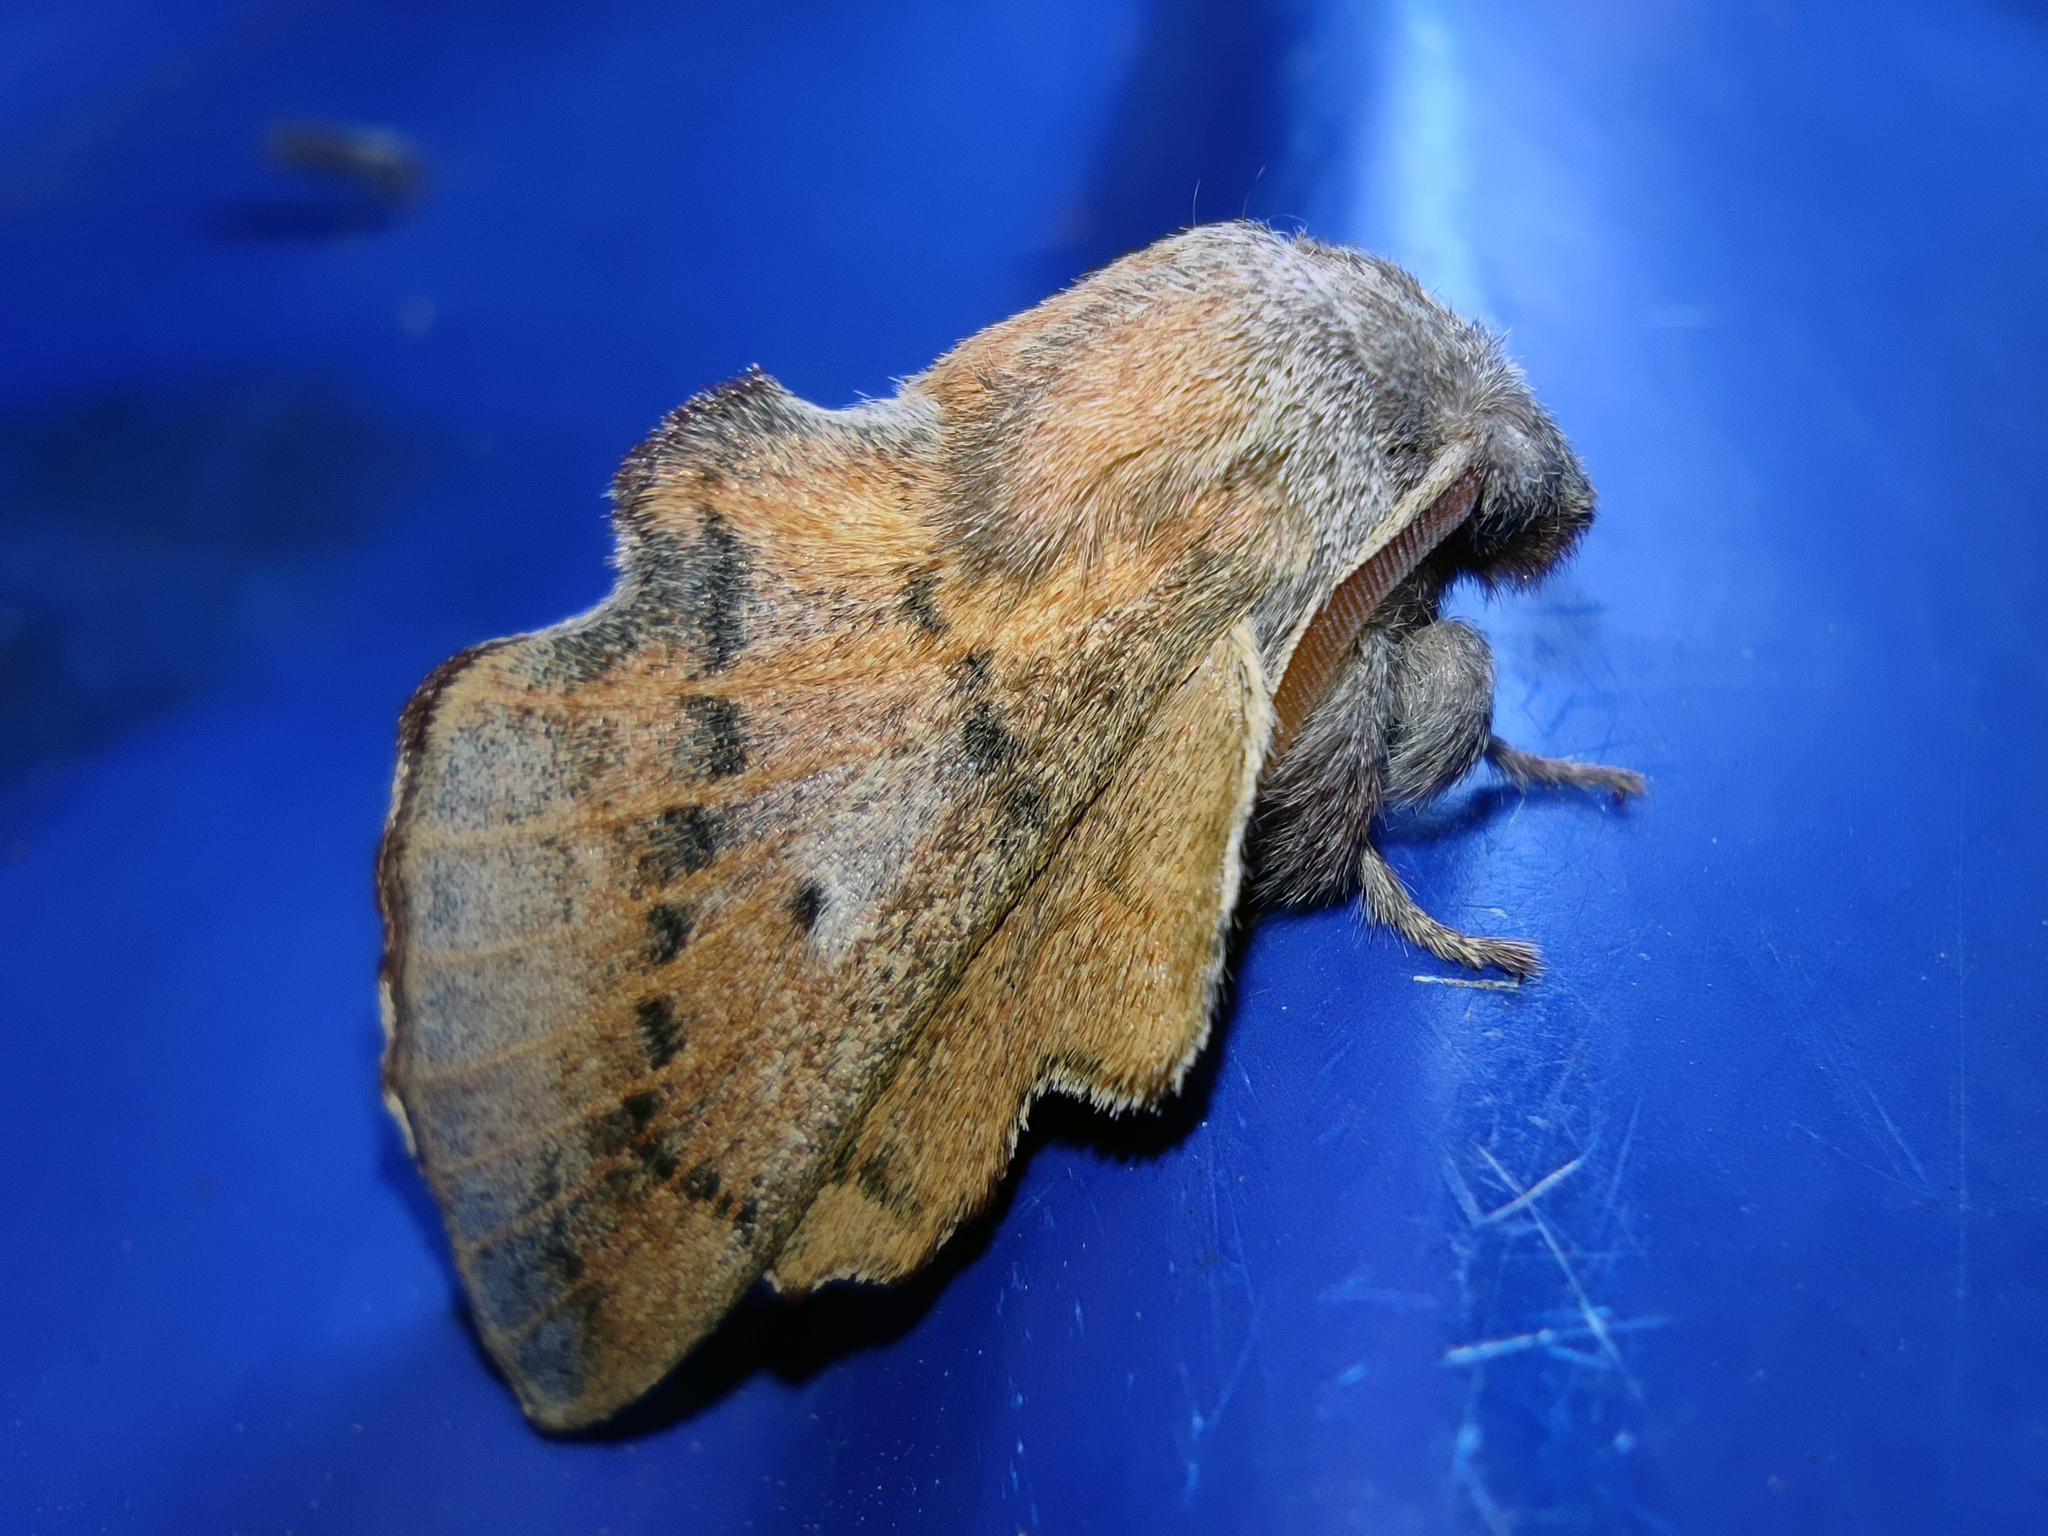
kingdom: Animalia
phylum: Arthropoda
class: Insecta
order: Lepidoptera
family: Lasiocampidae
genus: Phyllodesma
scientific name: Phyllodesma tremulifolia
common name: Aspen lappet
